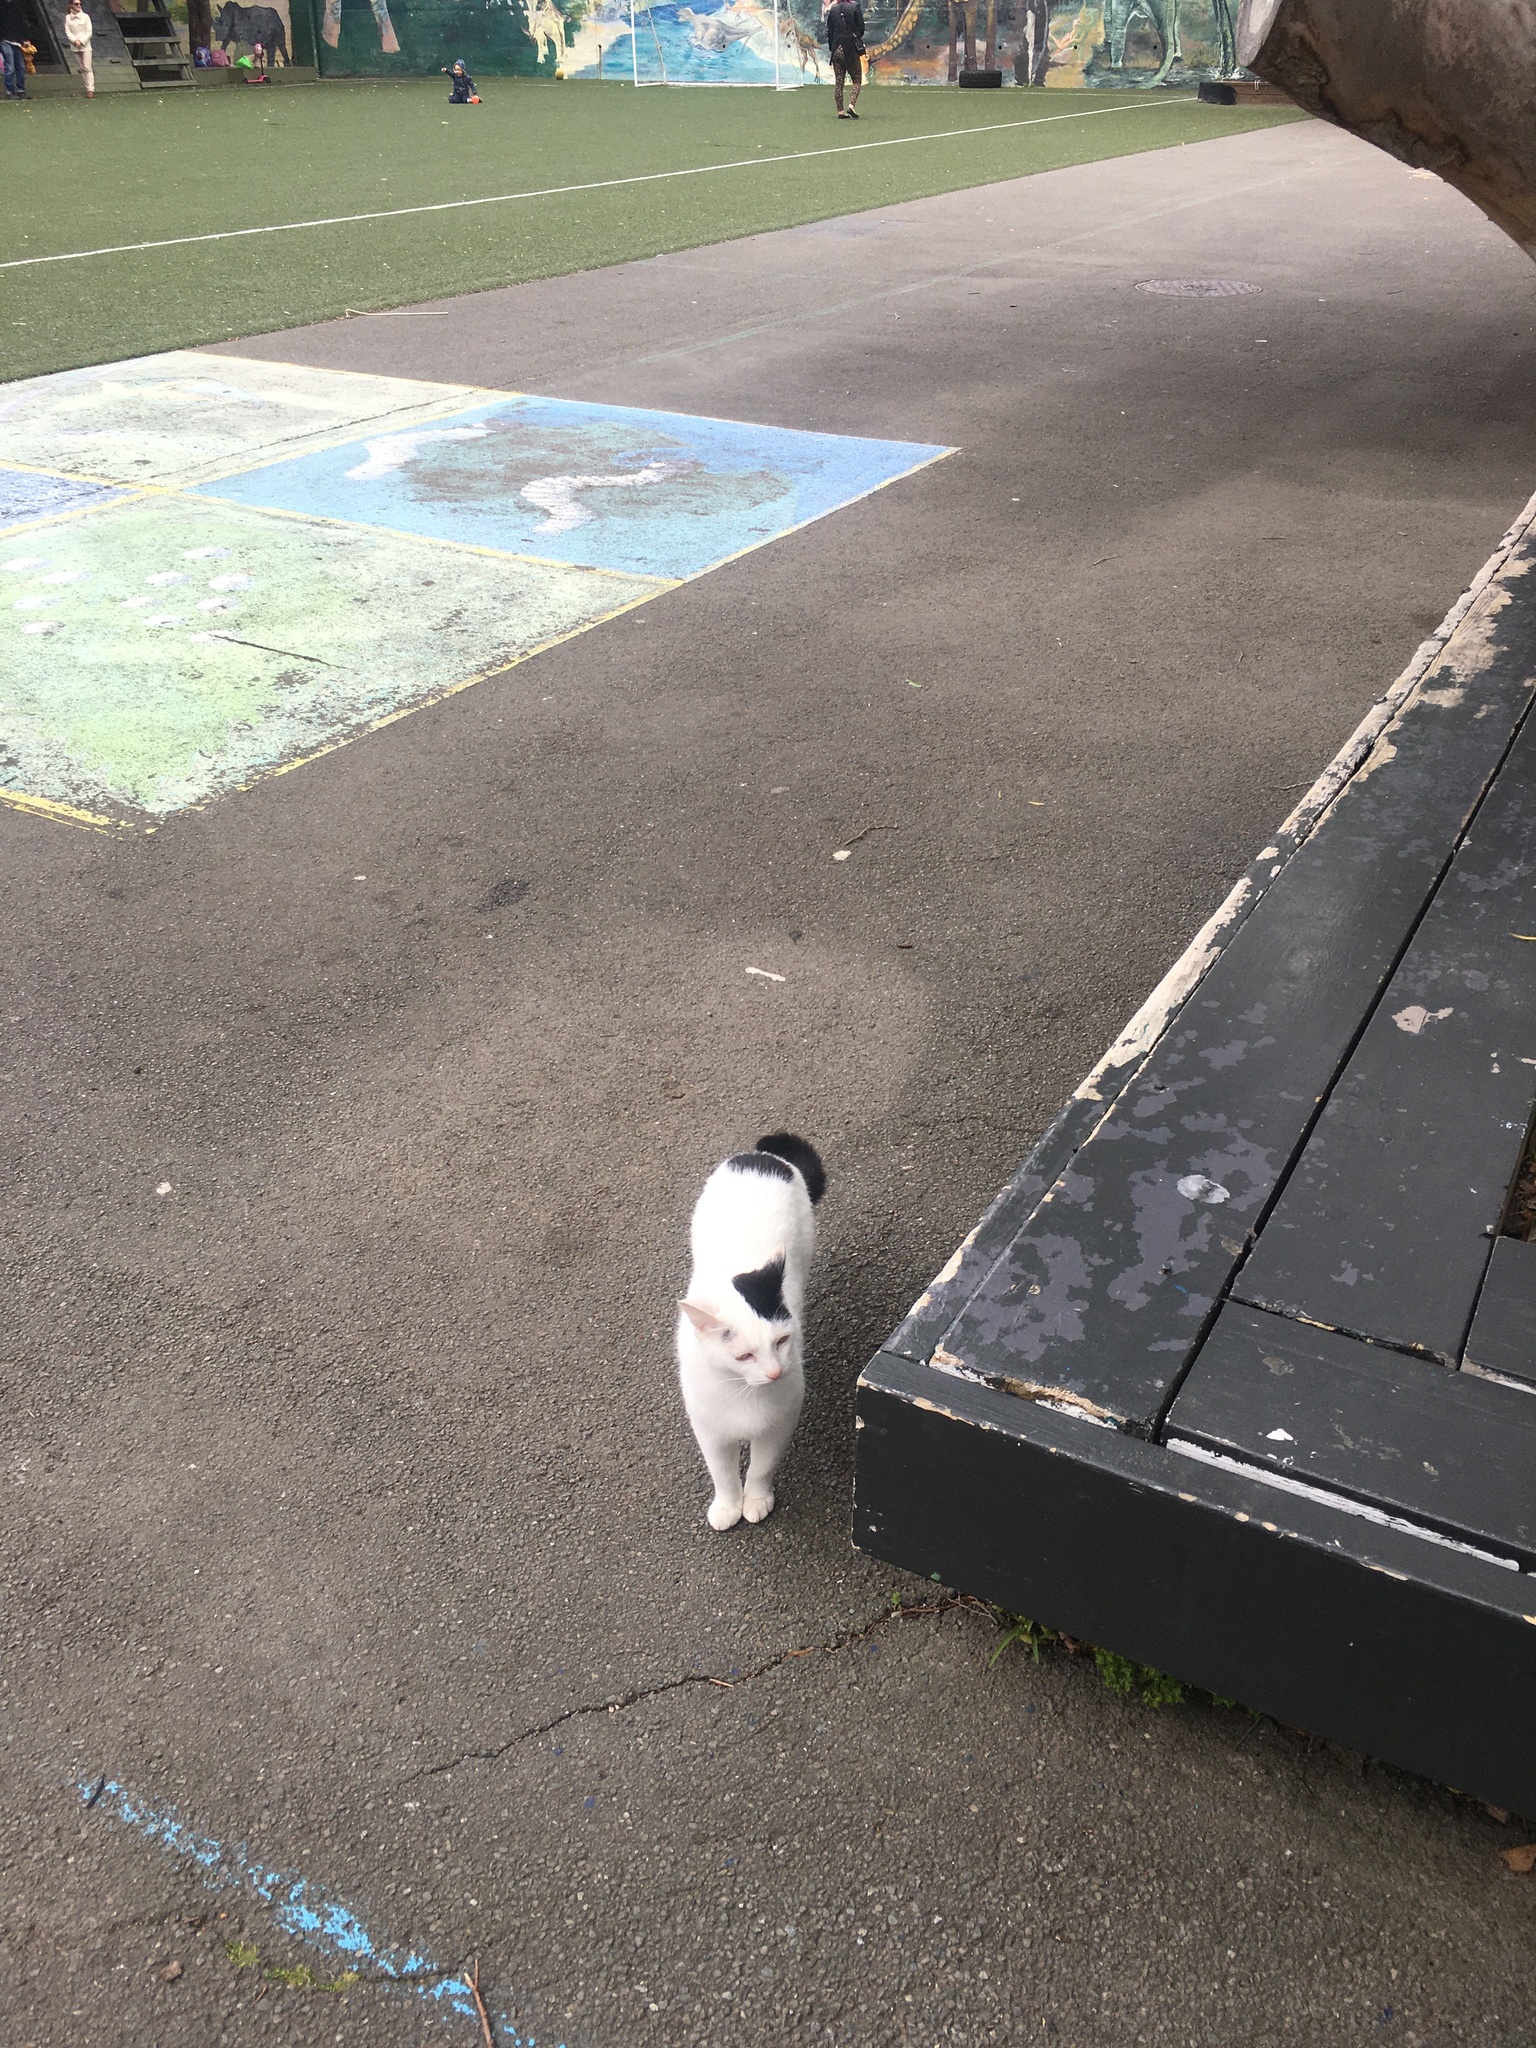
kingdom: Animalia
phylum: Chordata
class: Mammalia
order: Carnivora
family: Felidae
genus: Felis
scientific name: Felis catus
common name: Domestic cat
